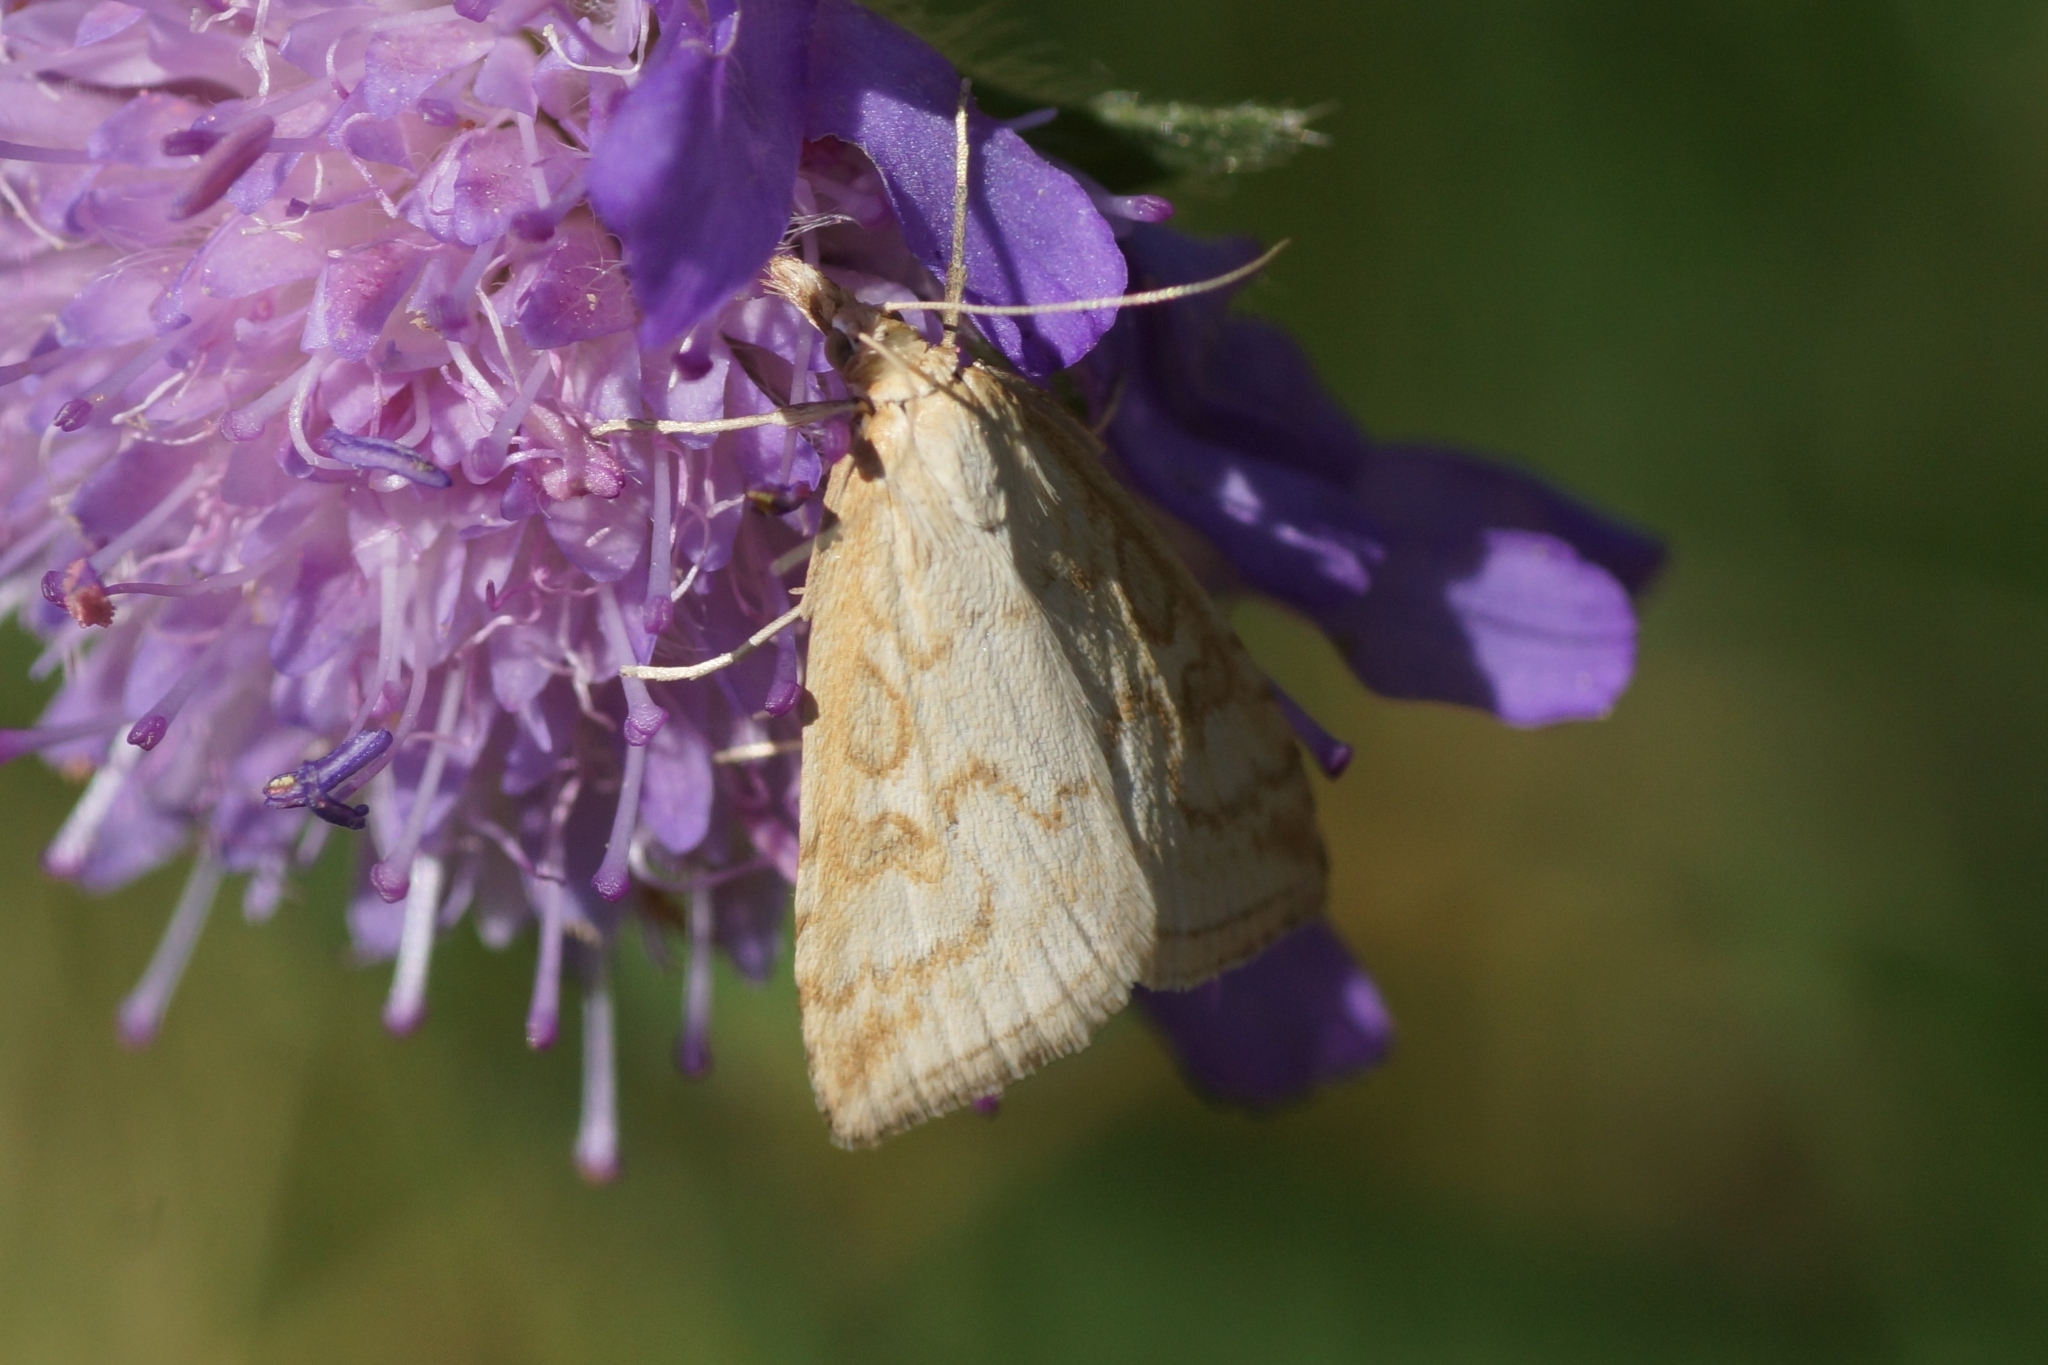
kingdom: Animalia
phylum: Arthropoda
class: Insecta
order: Lepidoptera
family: Crambidae
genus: Udea
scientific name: Udea lutealis
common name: Pale straw pearl
